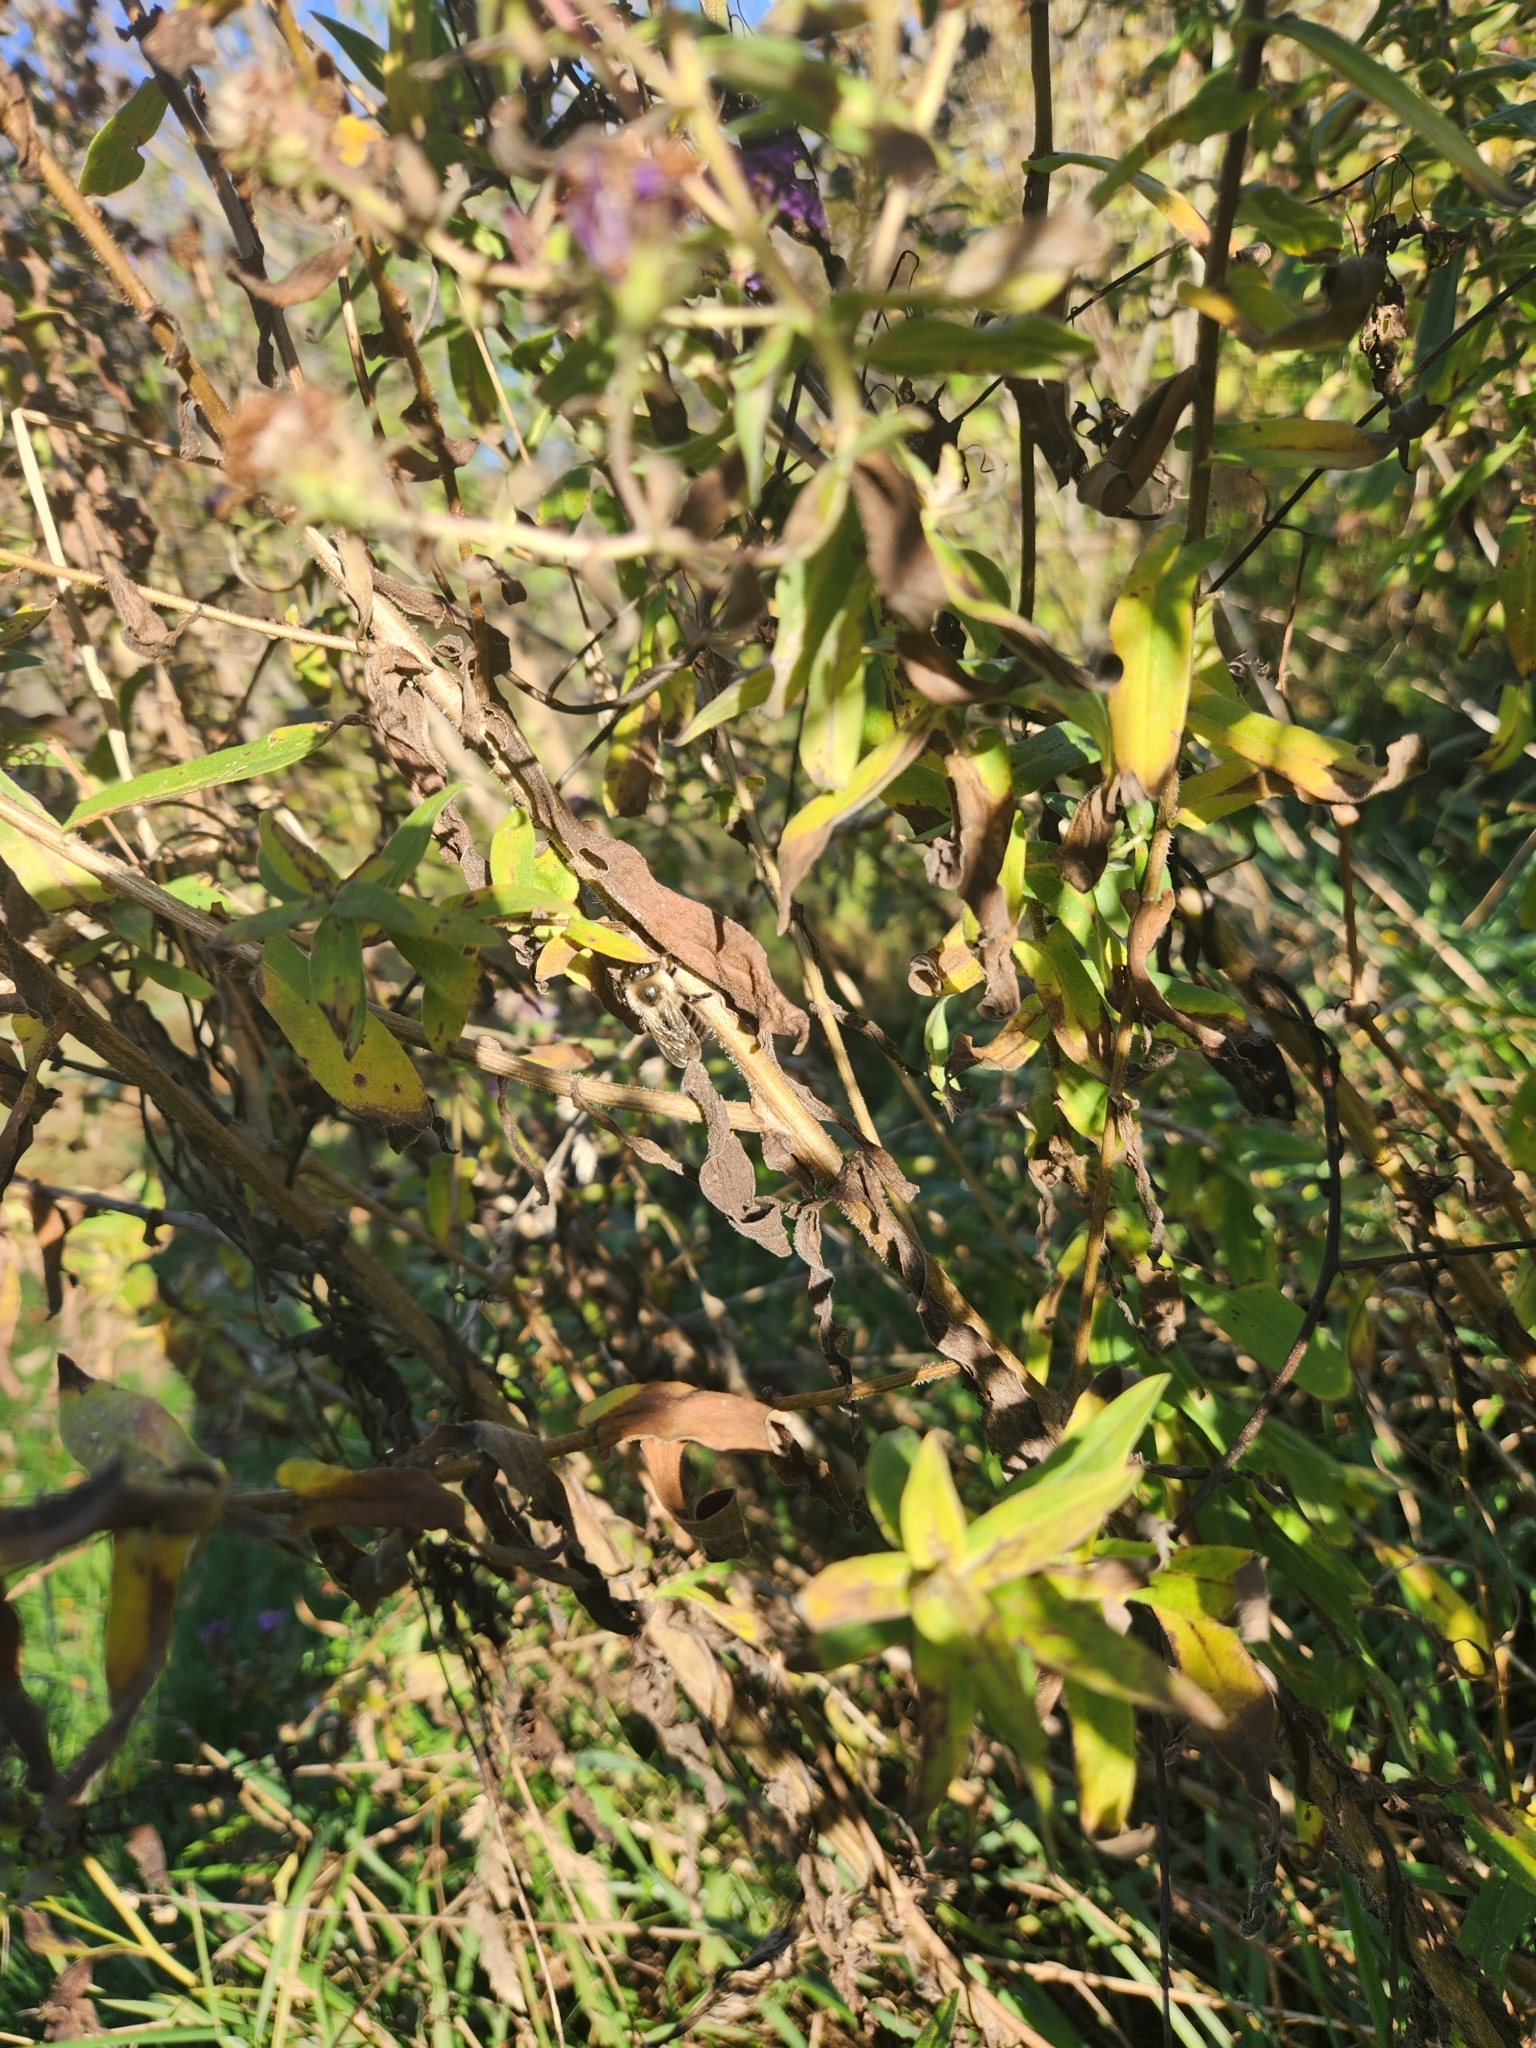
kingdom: Animalia
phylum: Arthropoda
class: Insecta
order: Hymenoptera
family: Apidae
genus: Bombus
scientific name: Bombus impatiens
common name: Common eastern bumble bee
